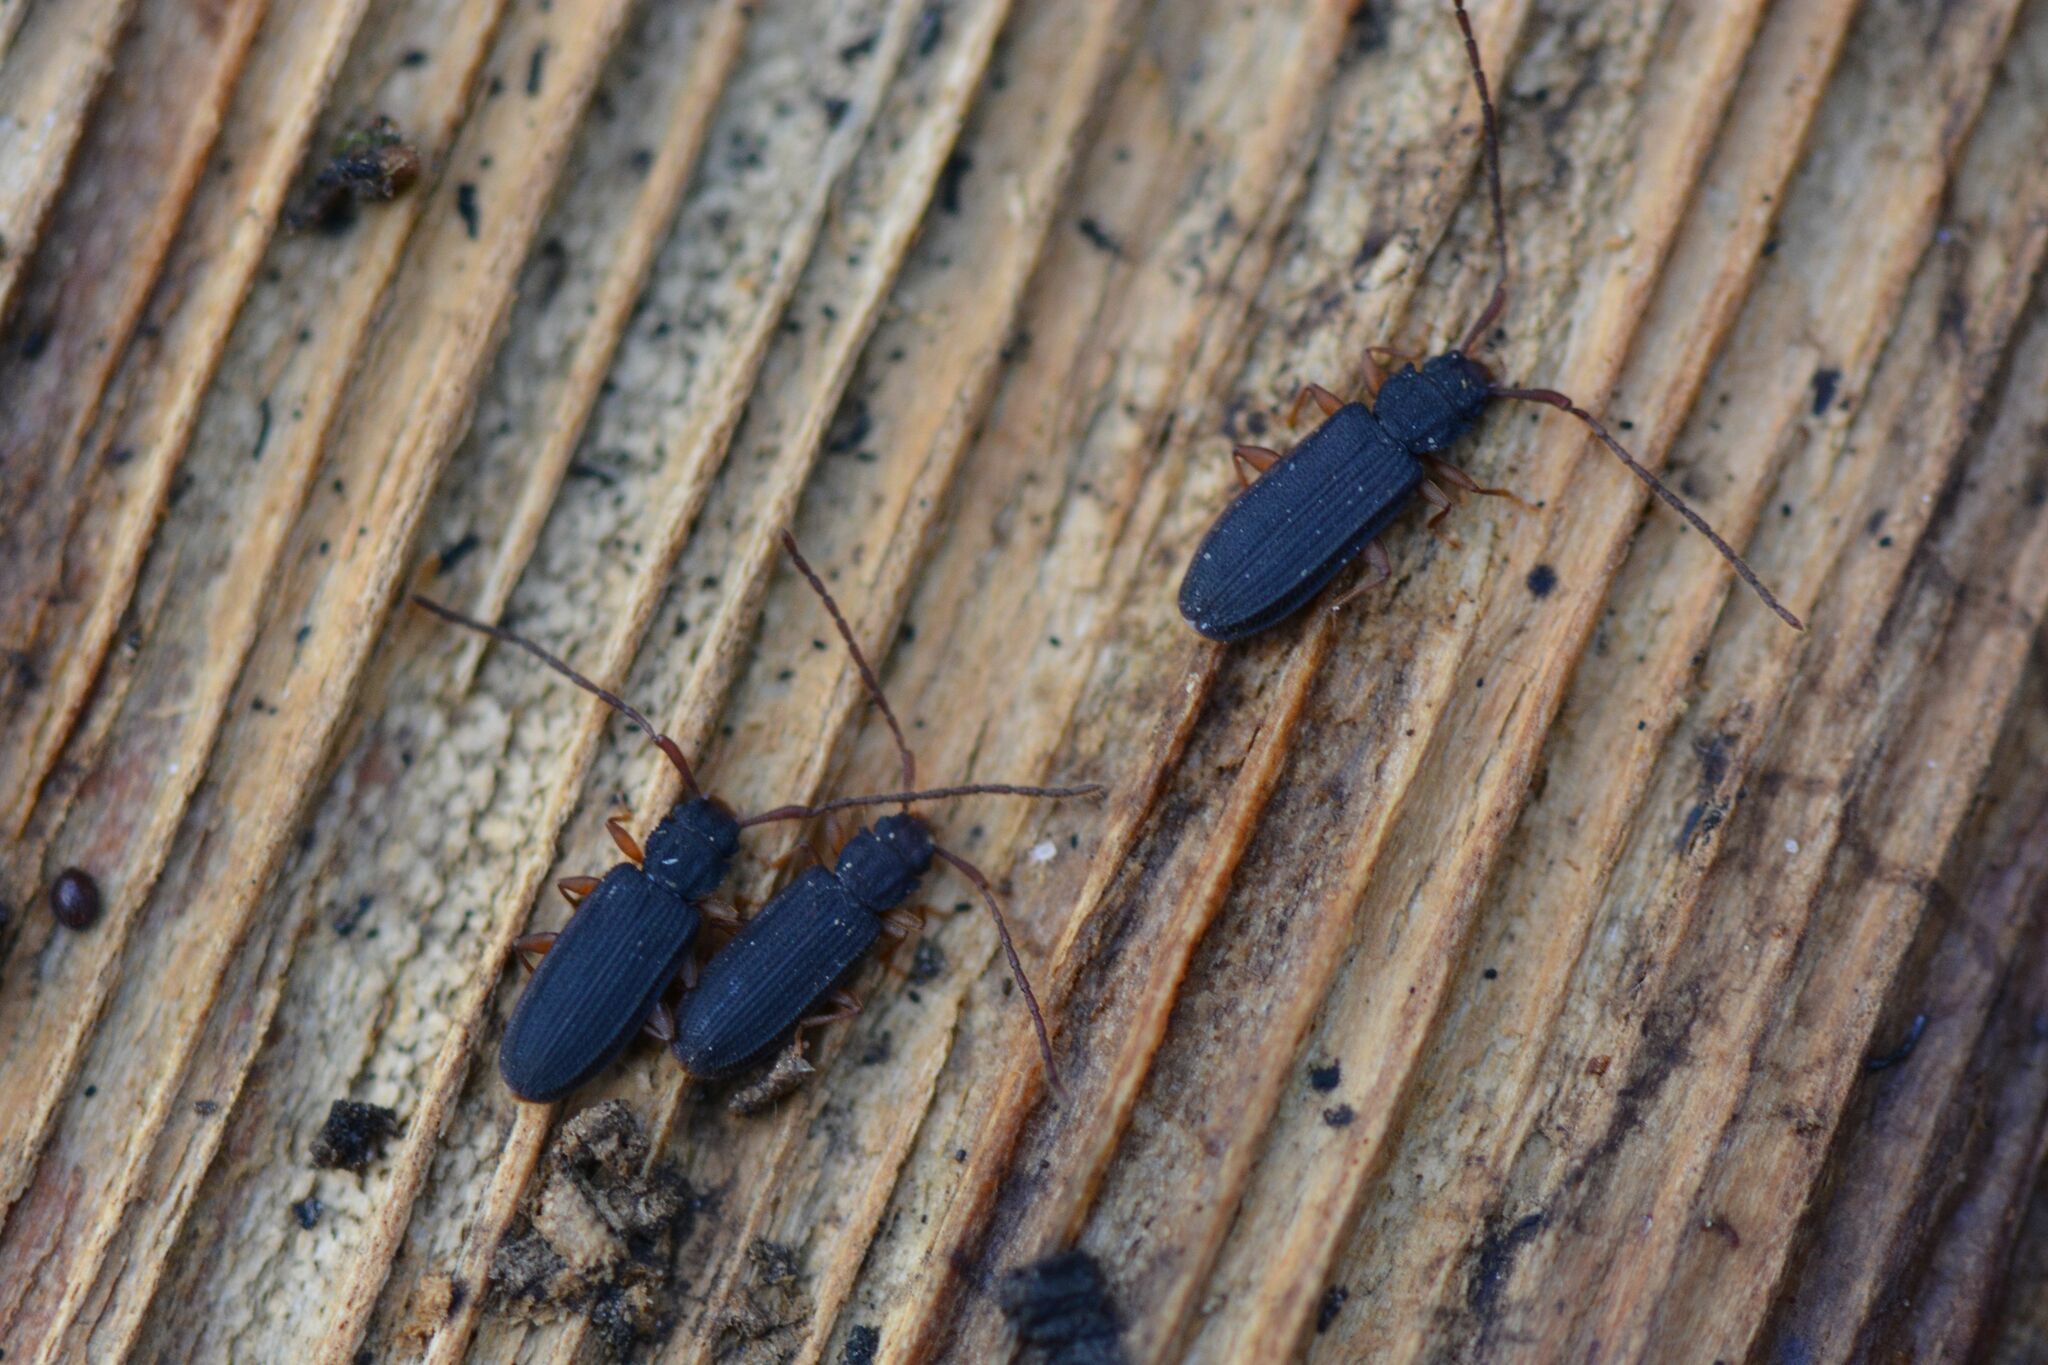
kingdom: Animalia
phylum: Arthropoda
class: Insecta
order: Coleoptera
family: Silvanidae
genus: Uleiota
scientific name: Uleiota planatus
